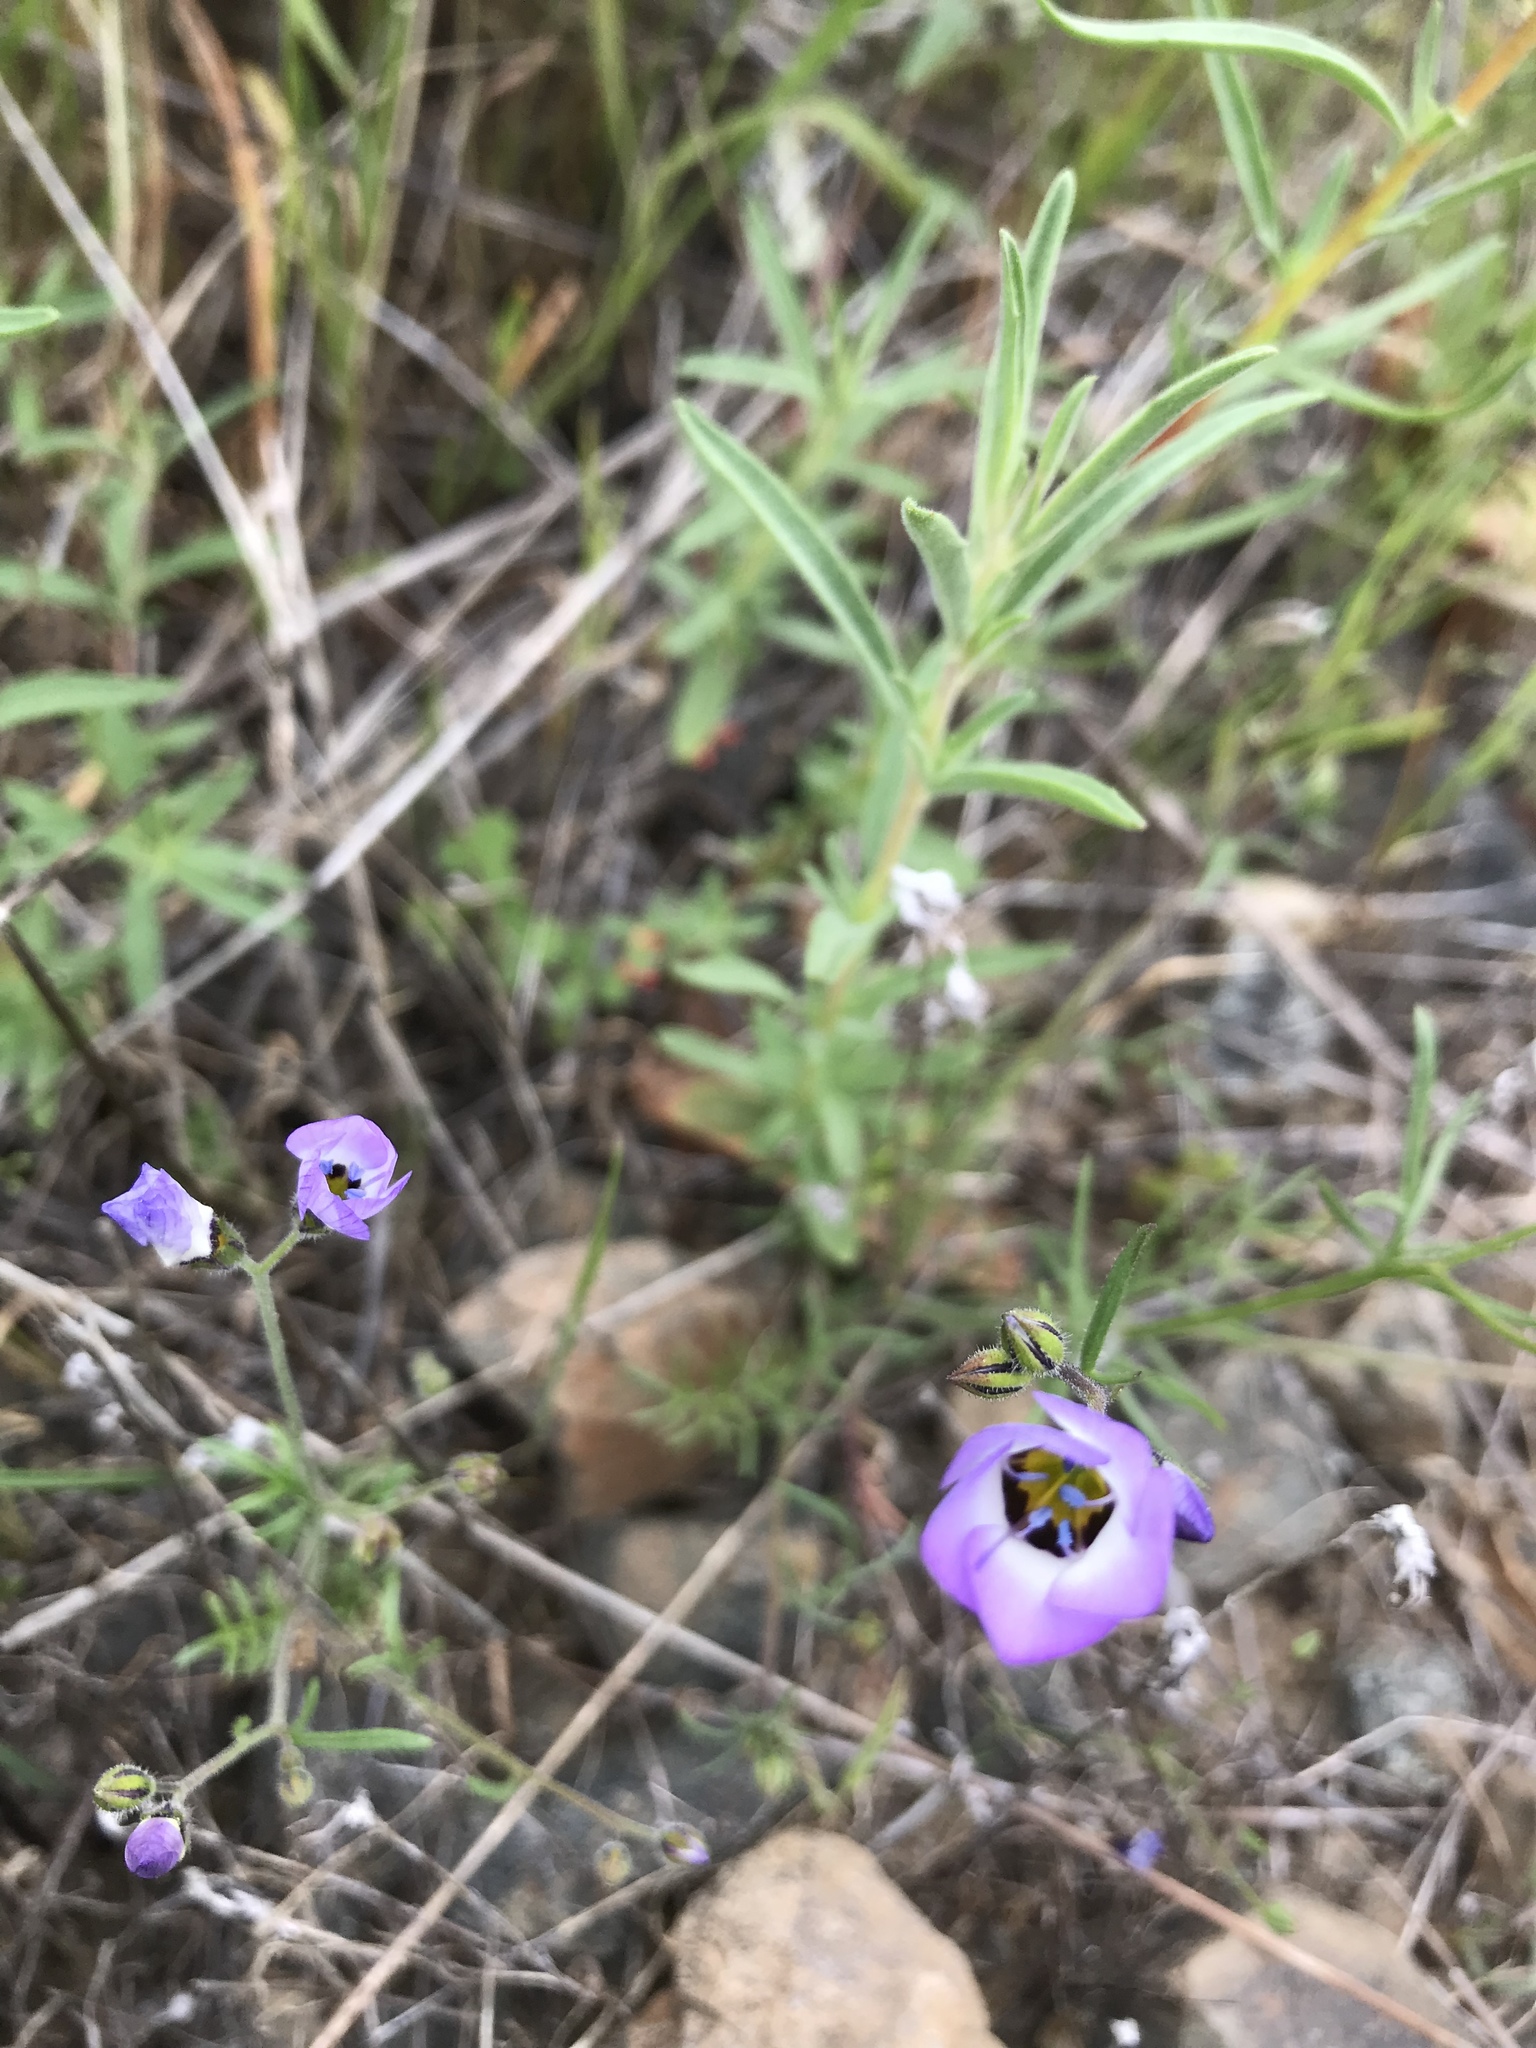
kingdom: Plantae
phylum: Tracheophyta
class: Magnoliopsida
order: Ericales
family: Polemoniaceae
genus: Gilia
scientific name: Gilia tricolor
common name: Bird's-eyes
